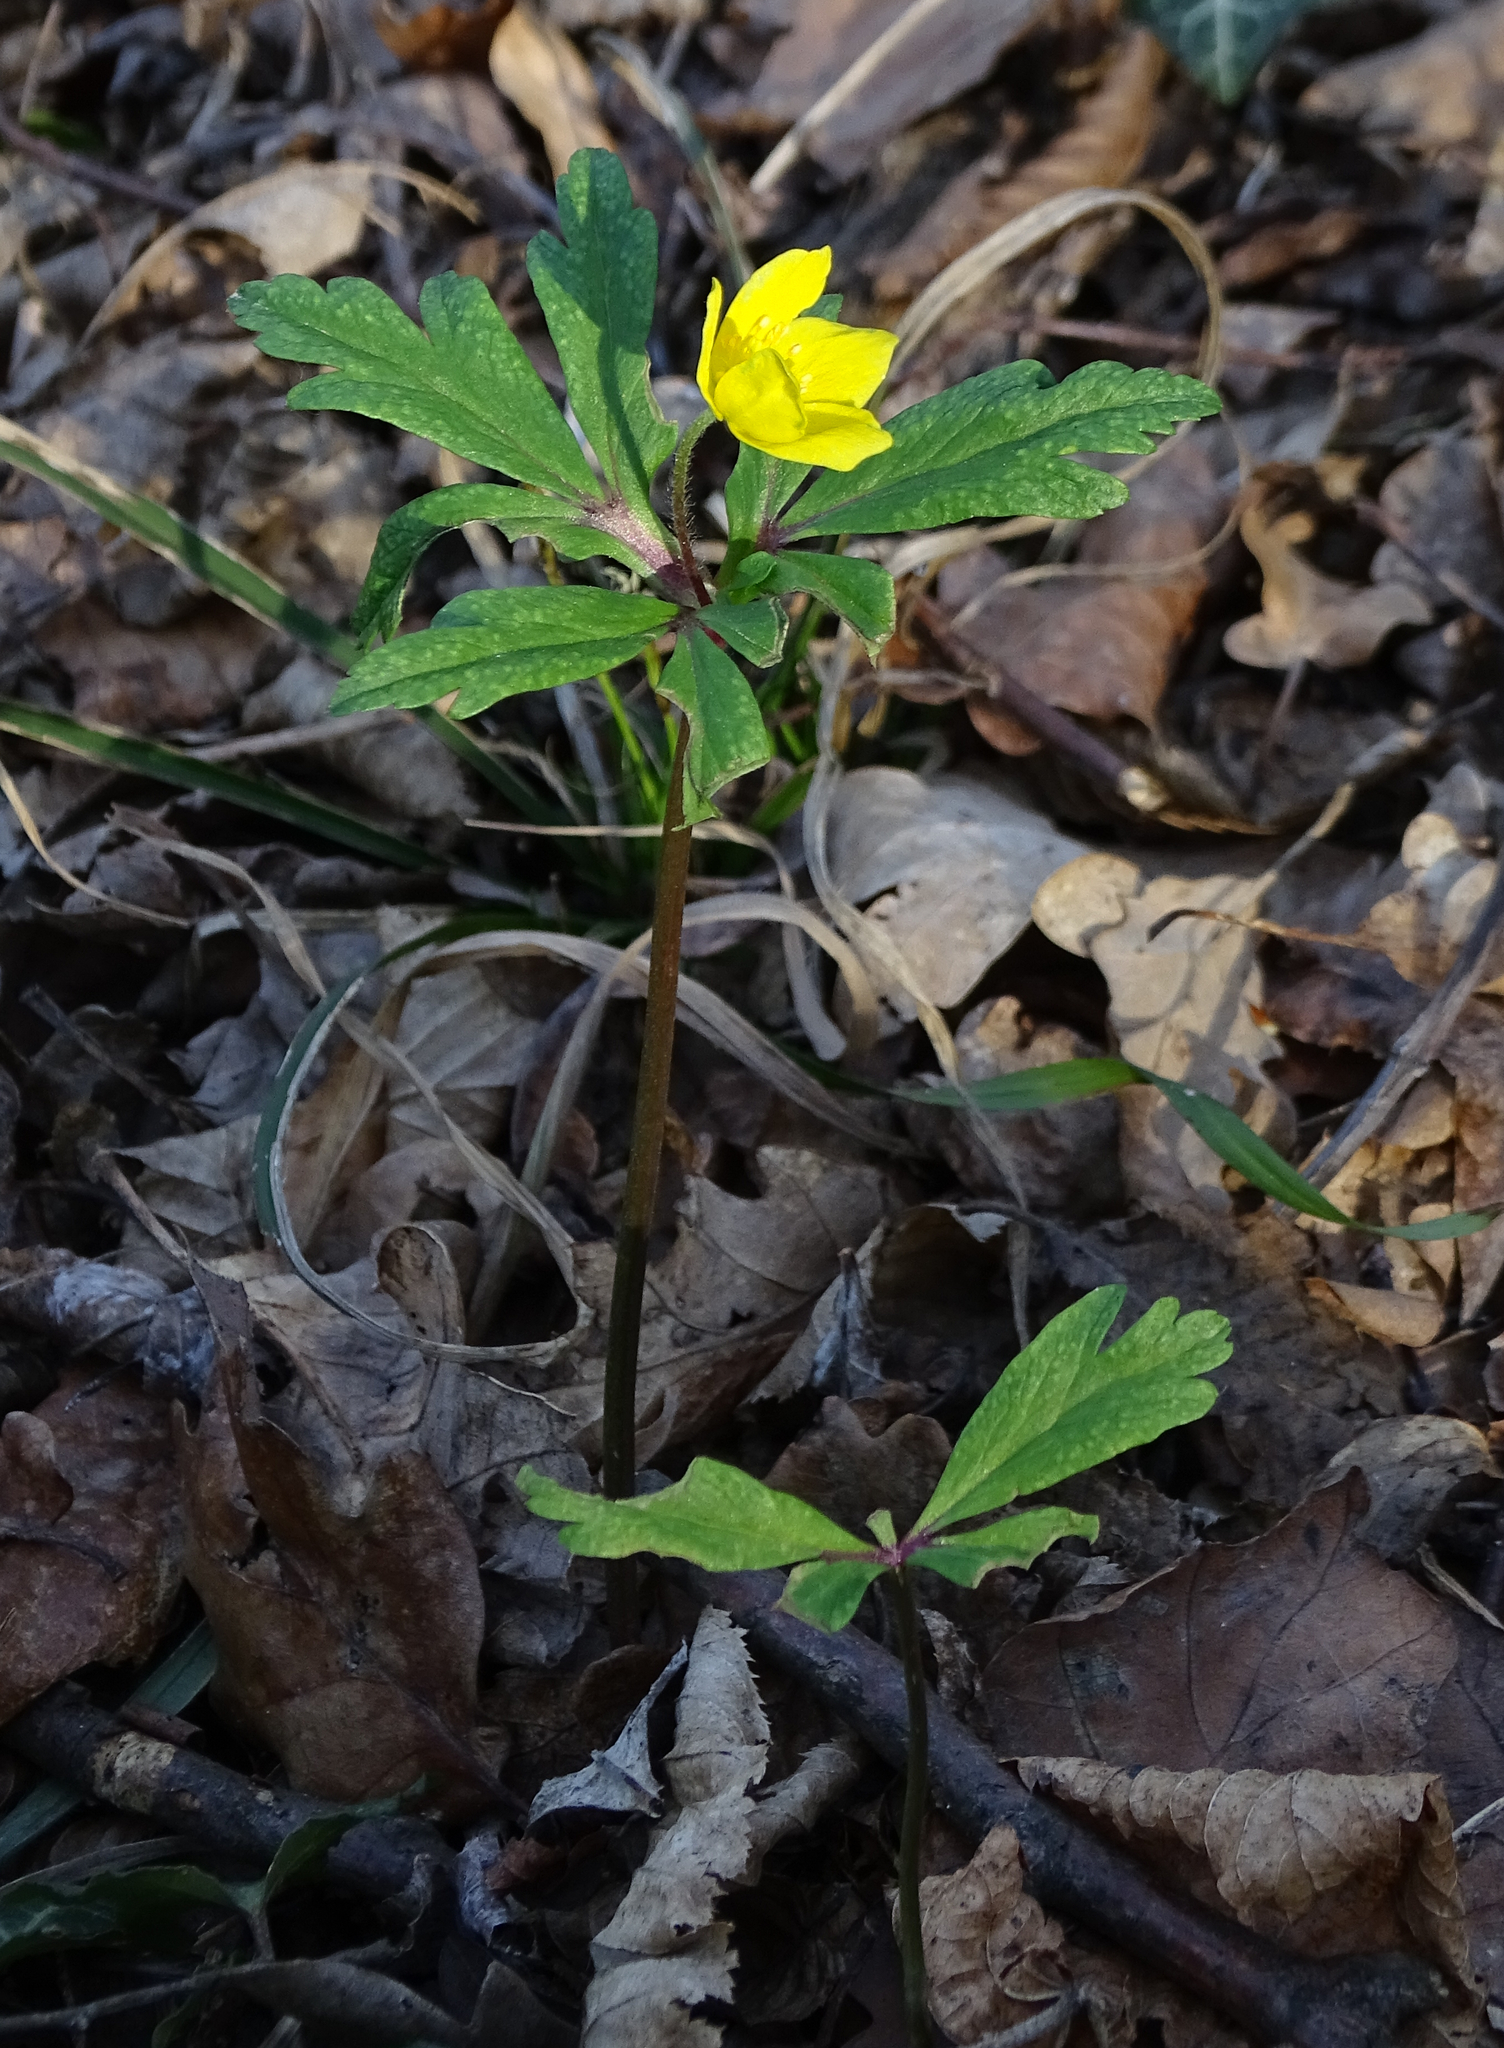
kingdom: Plantae
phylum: Tracheophyta
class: Magnoliopsida
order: Ranunculales
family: Ranunculaceae
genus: Anemone
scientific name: Anemone ranunculoides
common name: Yellow anemone
